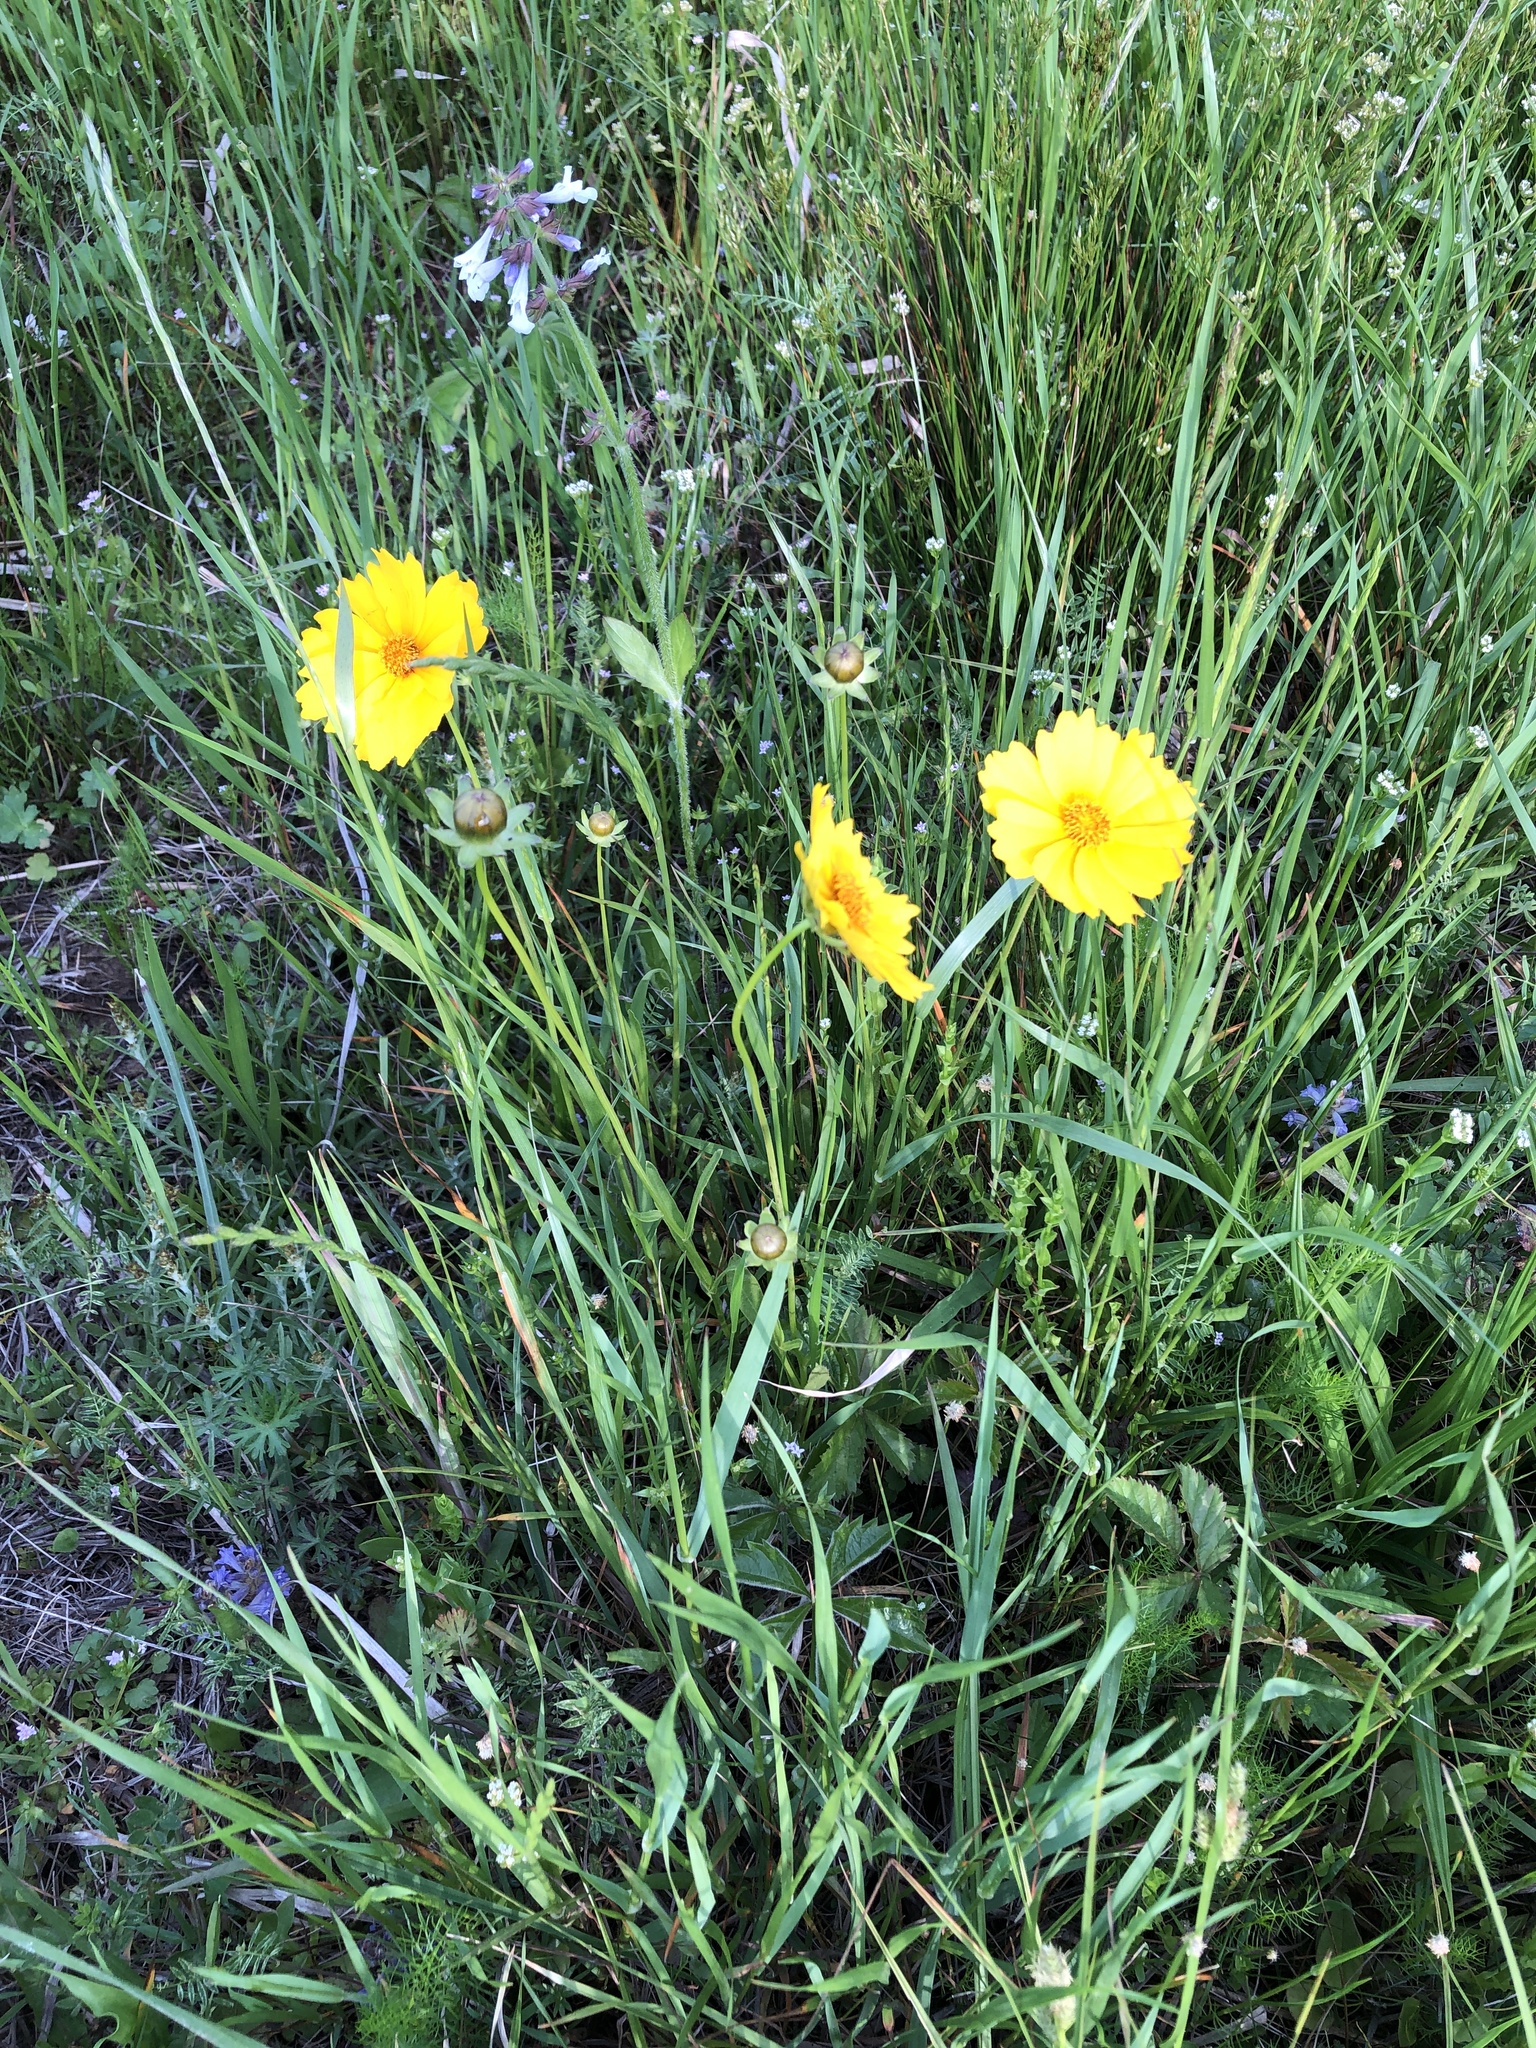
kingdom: Plantae
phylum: Tracheophyta
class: Magnoliopsida
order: Asterales
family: Asteraceae
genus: Coreopsis
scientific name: Coreopsis lanceolata
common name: Garden coreopsis
